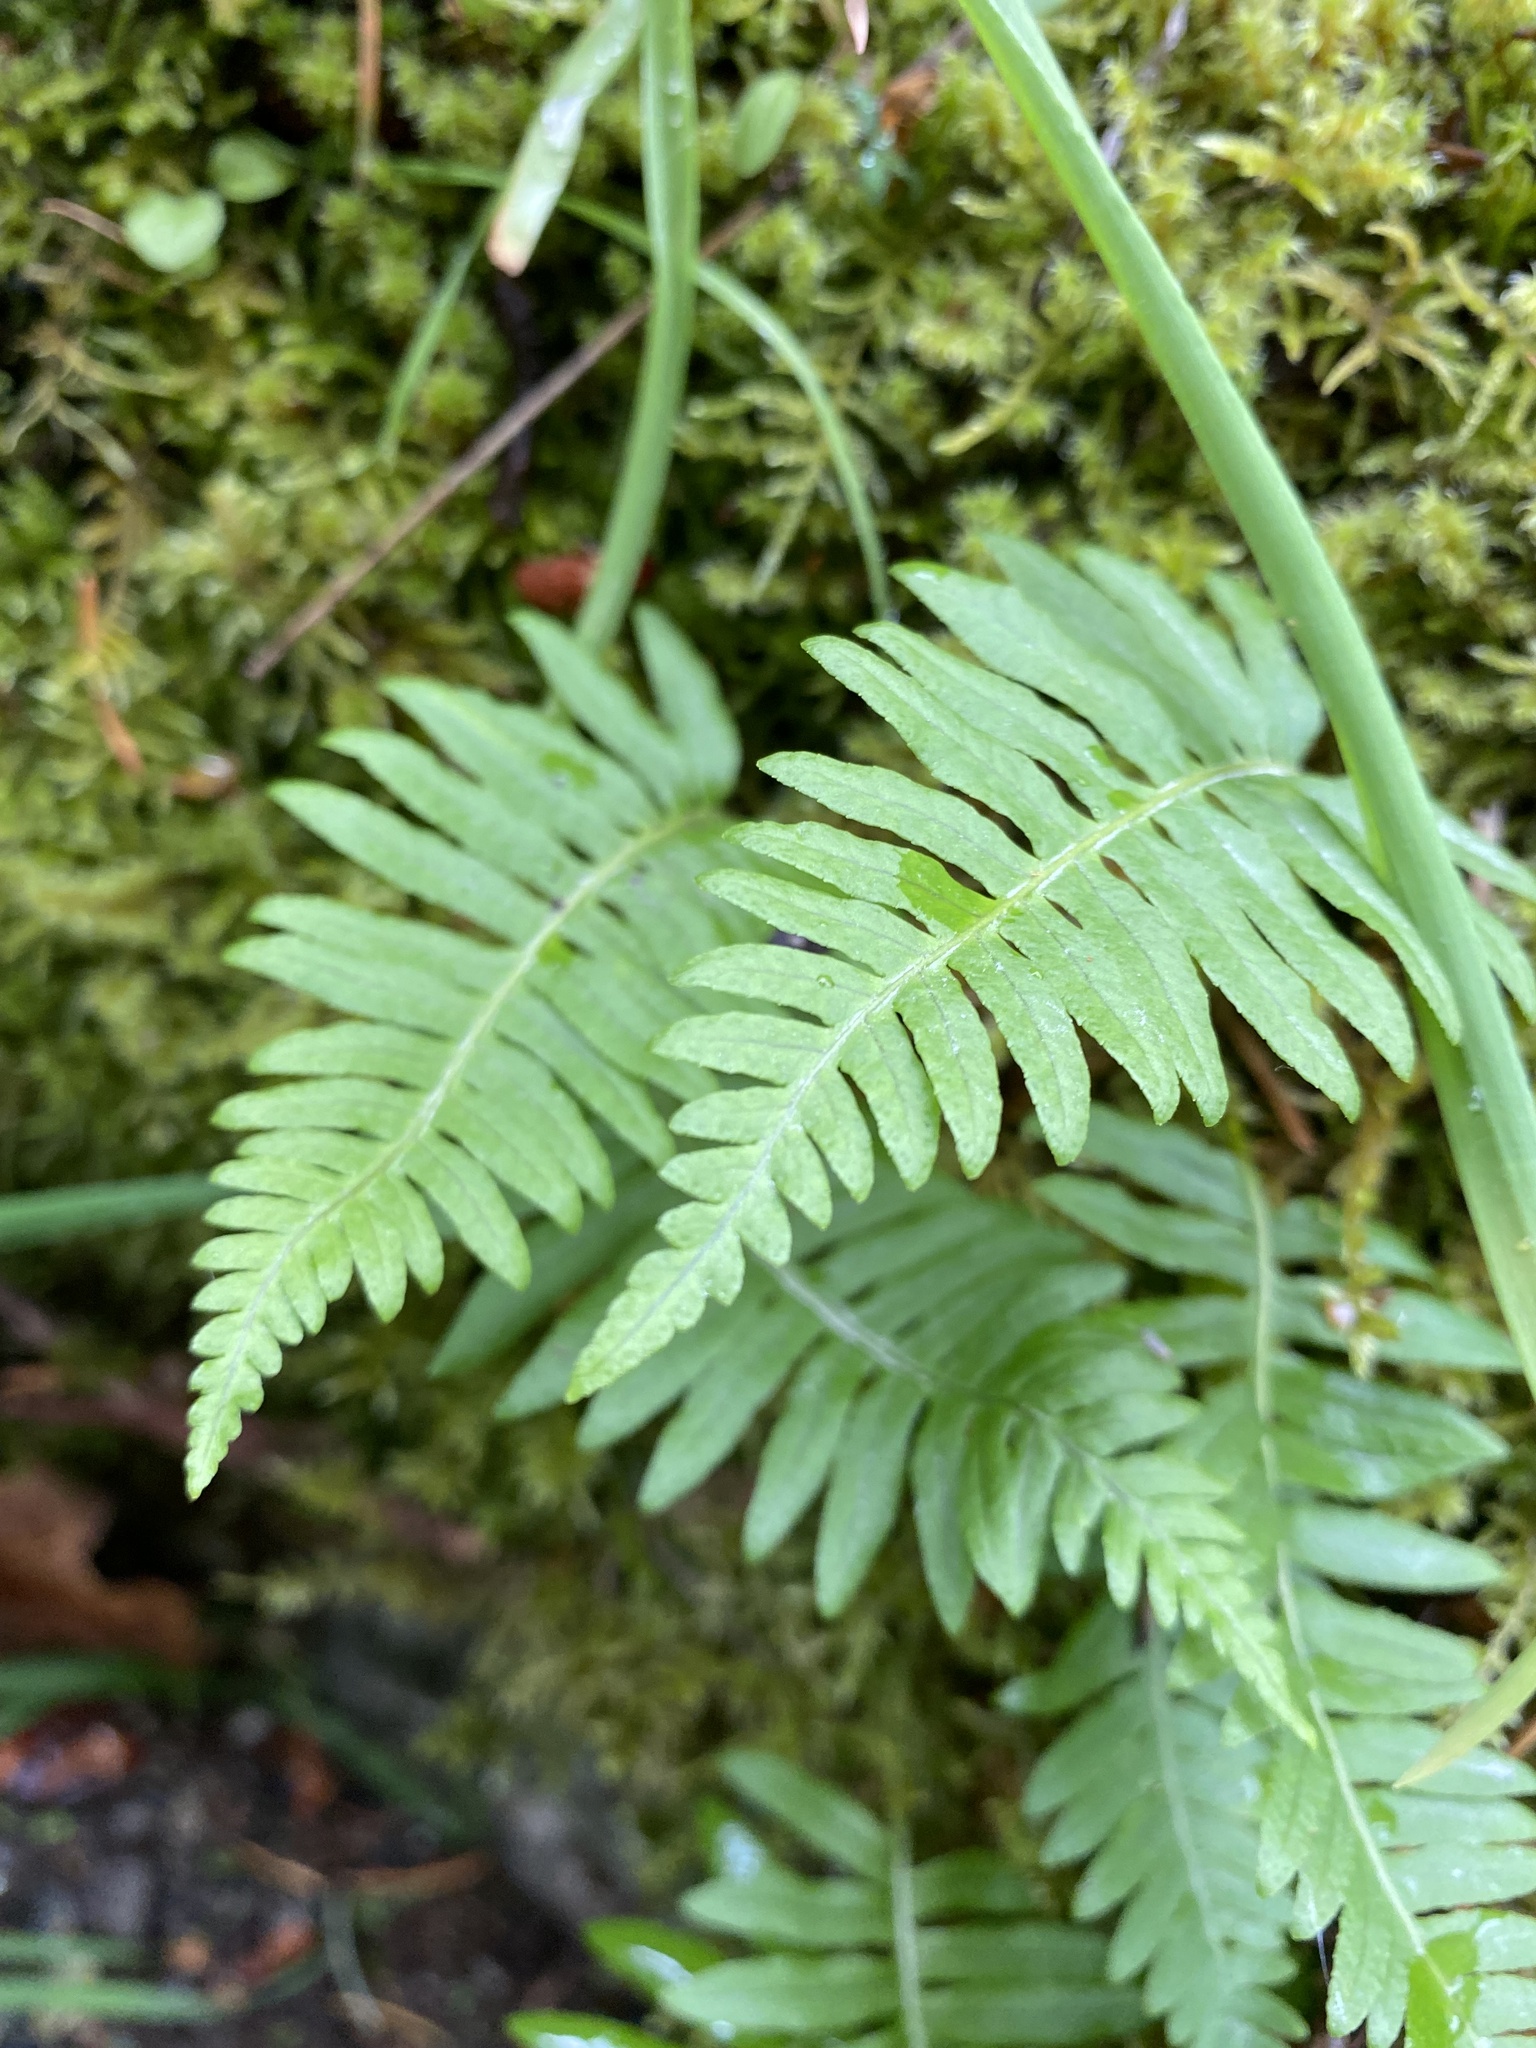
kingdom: Plantae
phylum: Tracheophyta
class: Polypodiopsida
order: Polypodiales
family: Polypodiaceae
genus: Polypodium
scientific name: Polypodium glycyrrhiza
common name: Licorice fern
